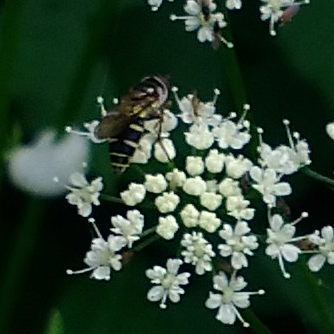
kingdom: Animalia
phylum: Arthropoda
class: Insecta
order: Diptera
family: Syrphidae
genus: Melangyna
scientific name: Melangyna fisherii
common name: Large-spotted halfband
